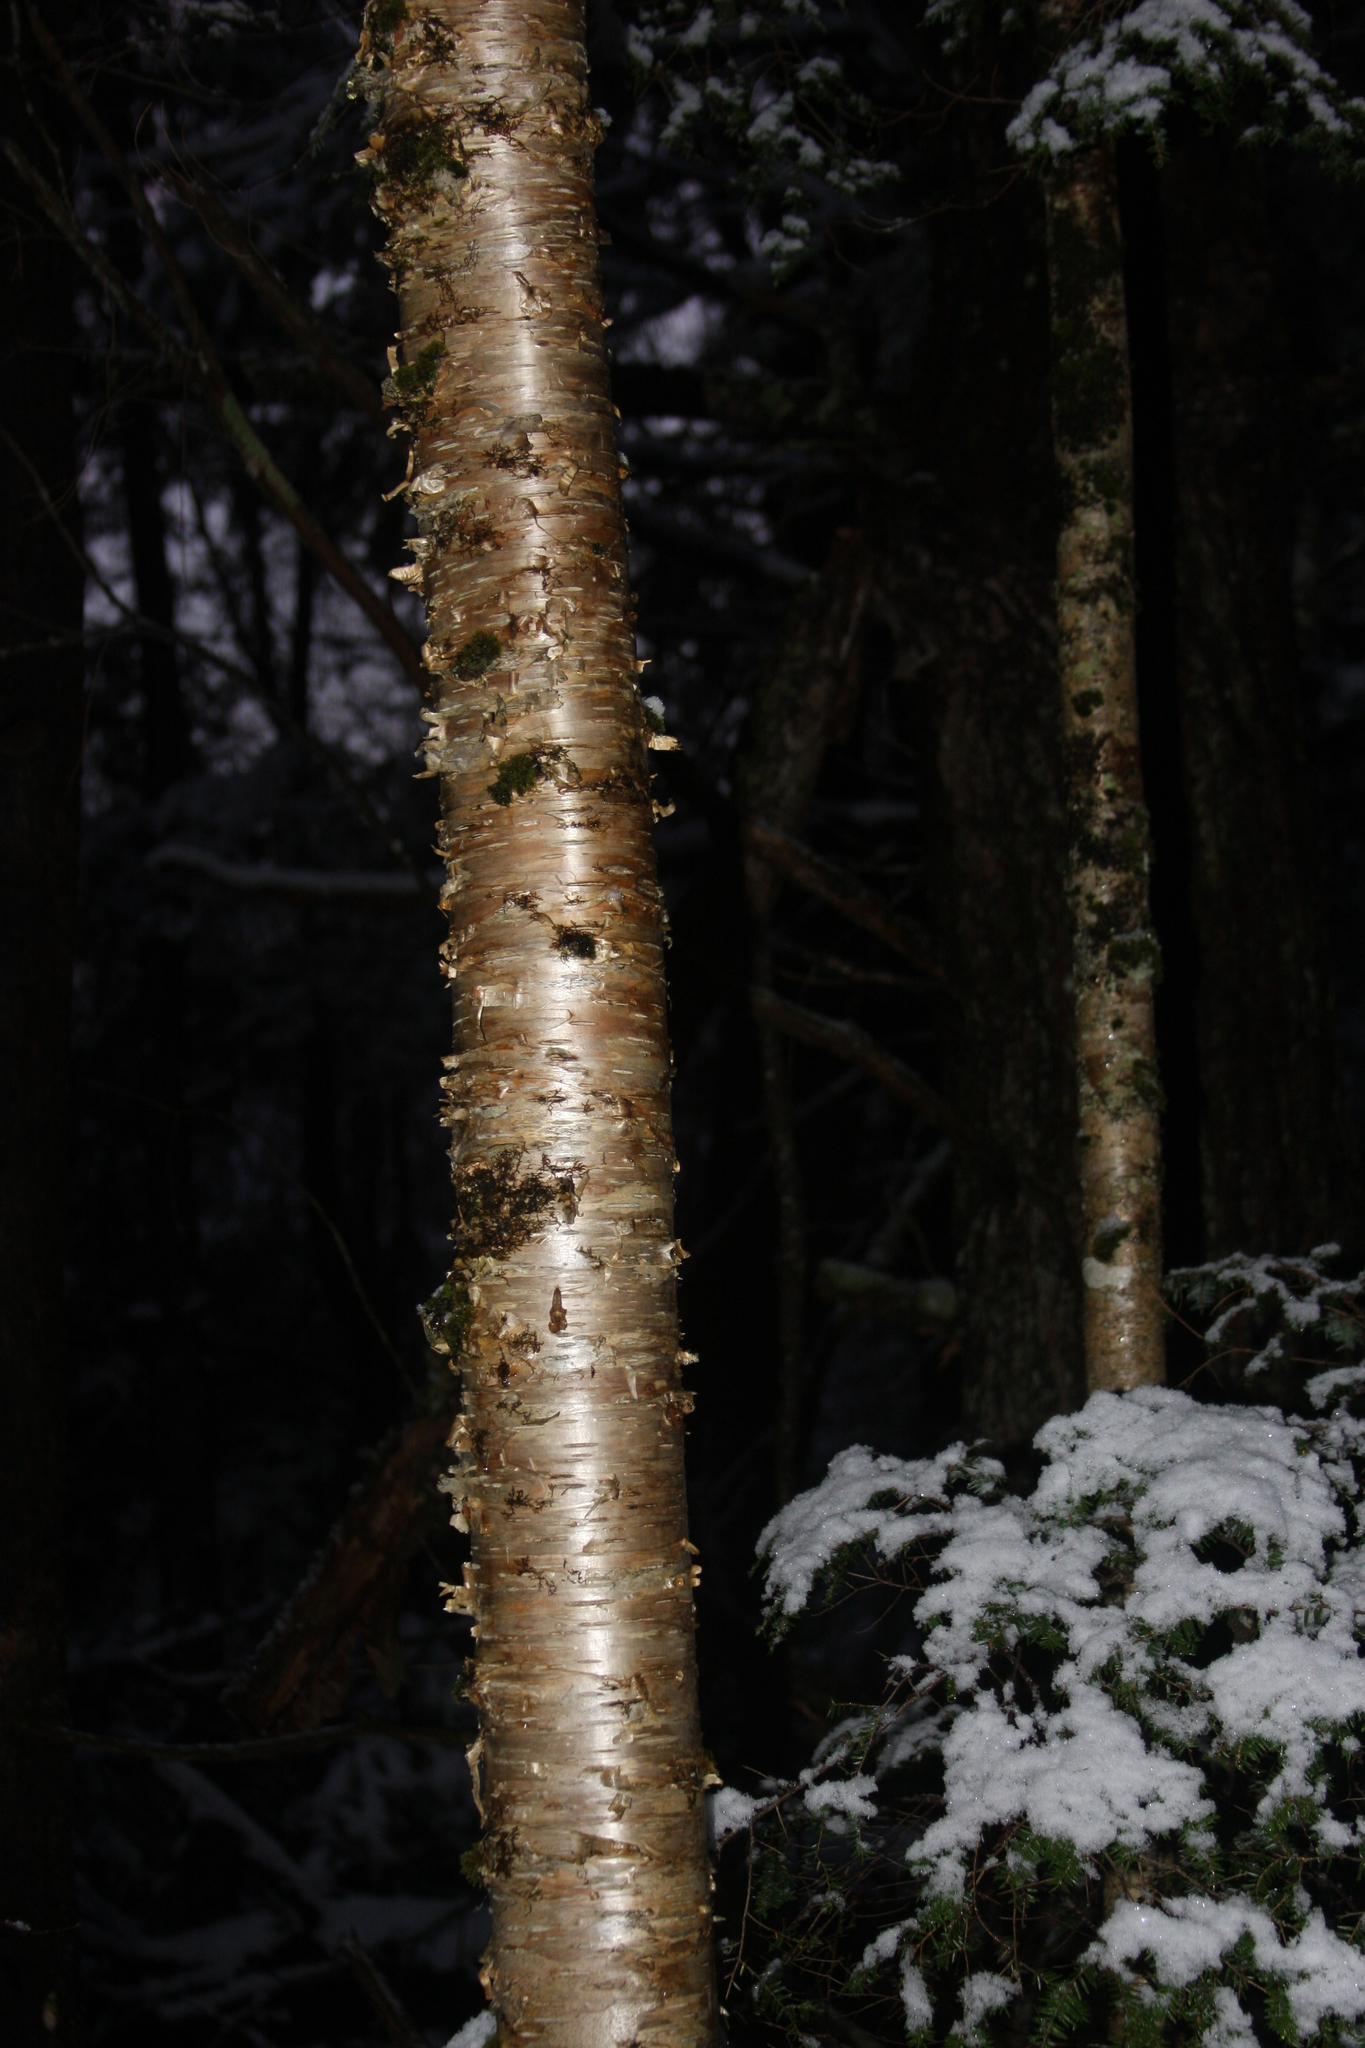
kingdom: Plantae
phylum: Tracheophyta
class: Magnoliopsida
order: Fagales
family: Betulaceae
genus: Betula
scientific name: Betula alleghaniensis
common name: Yellow birch
